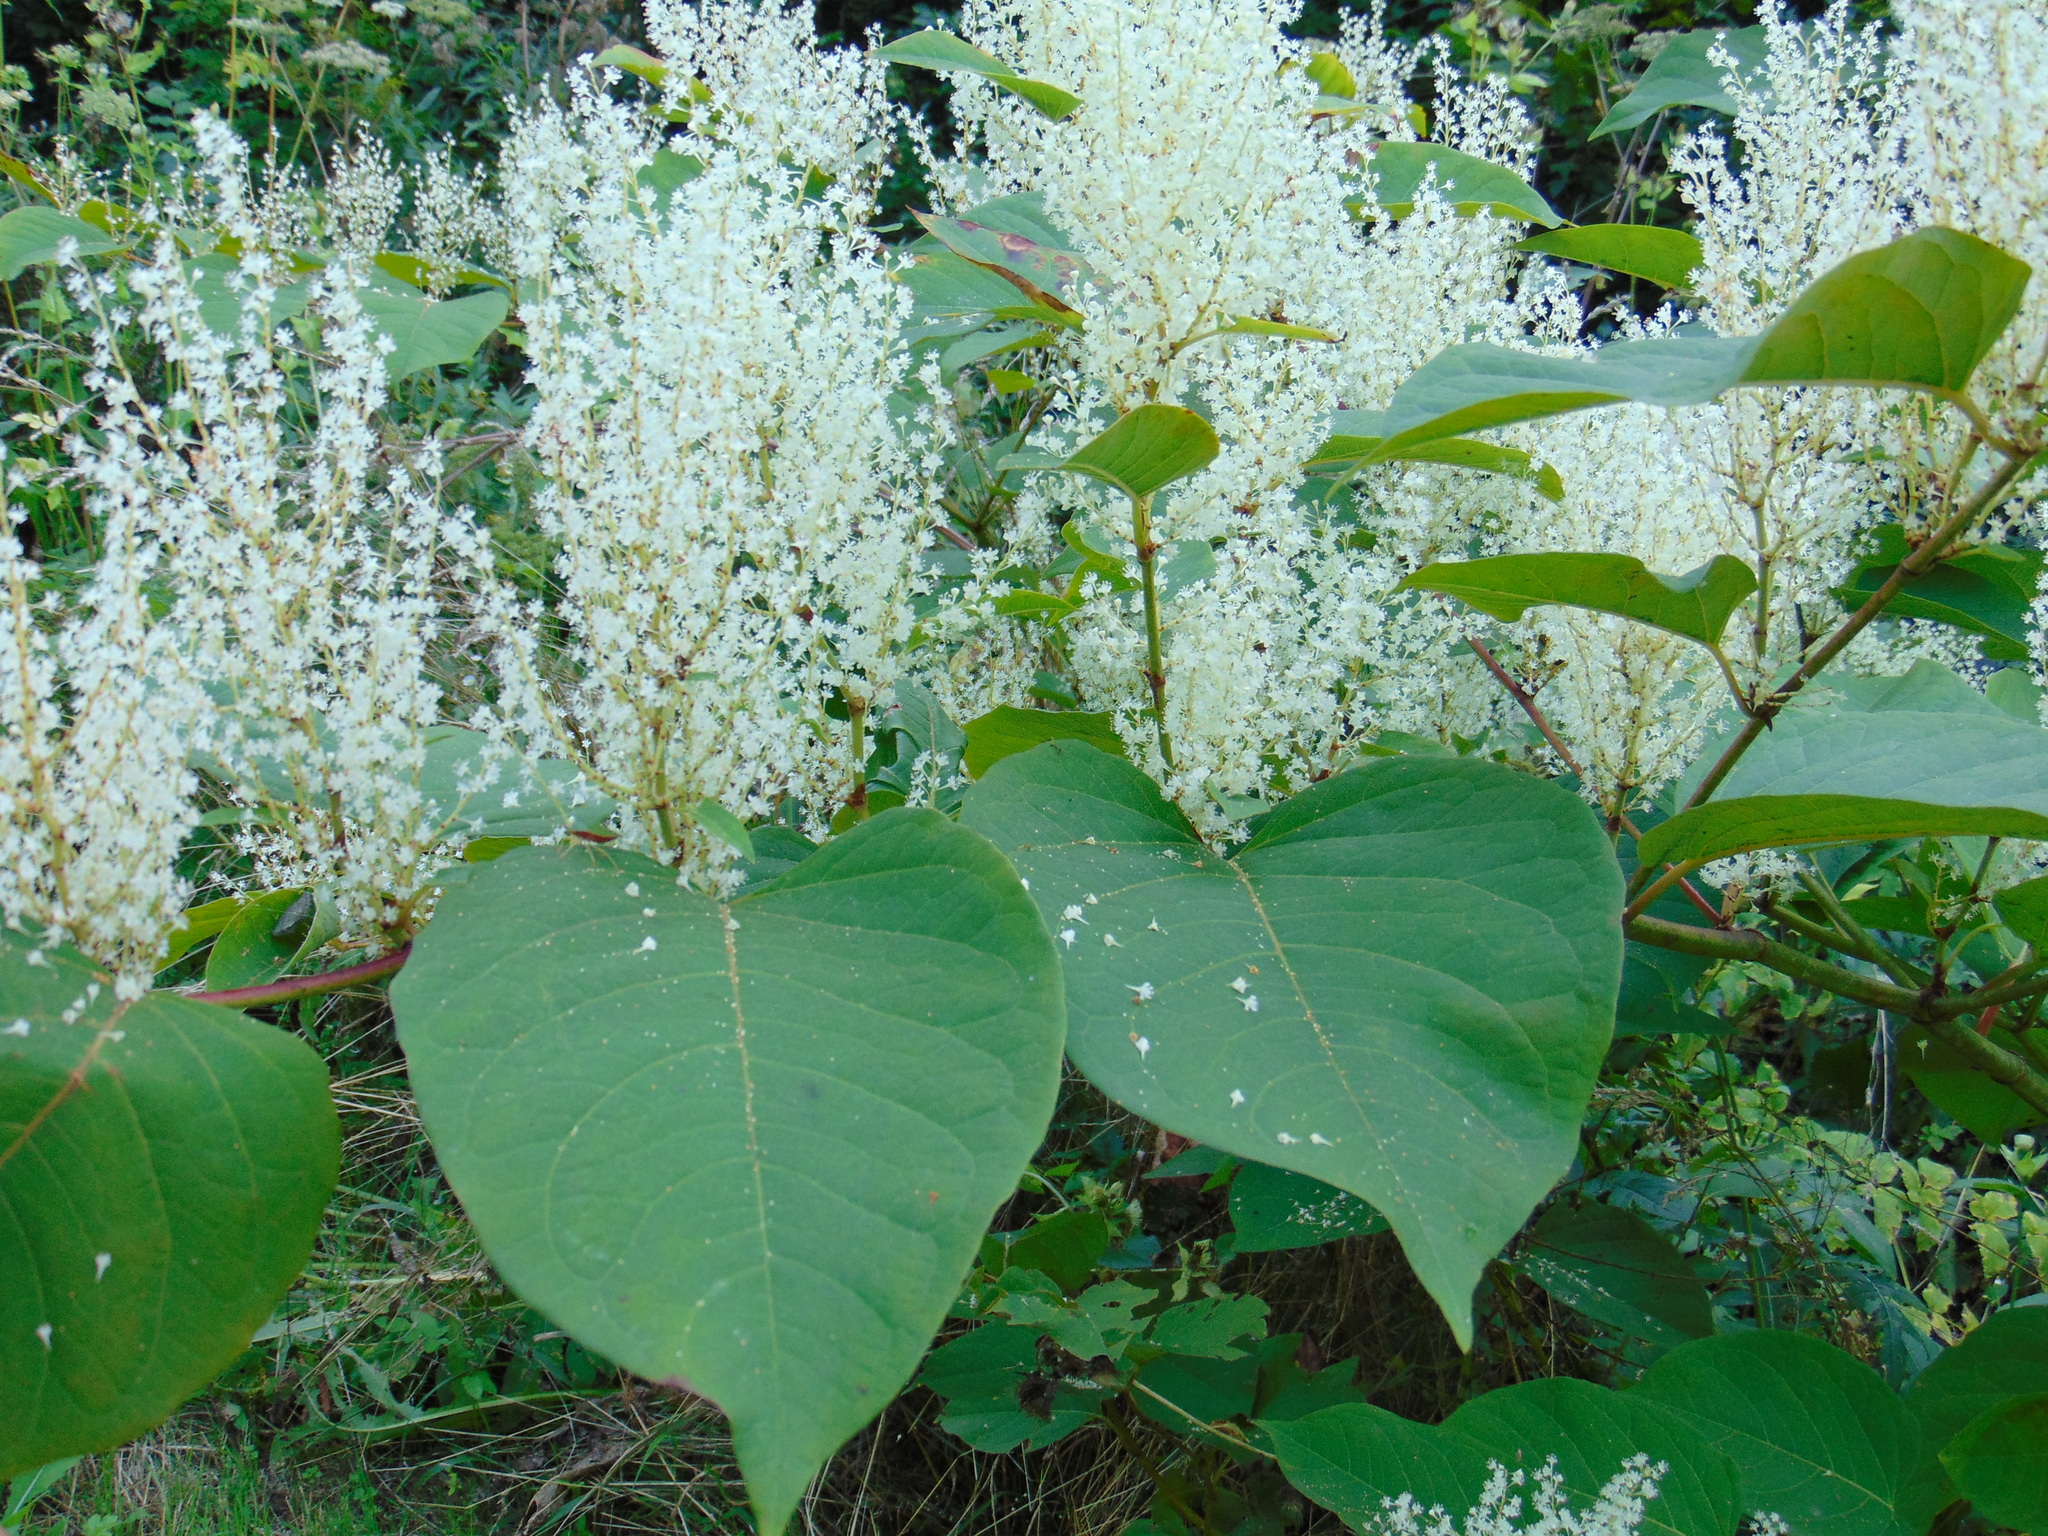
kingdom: Plantae
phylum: Tracheophyta
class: Magnoliopsida
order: Caryophyllales
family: Polygonaceae
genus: Reynoutria
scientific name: Reynoutria sachalinensis
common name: Giant knotweed
